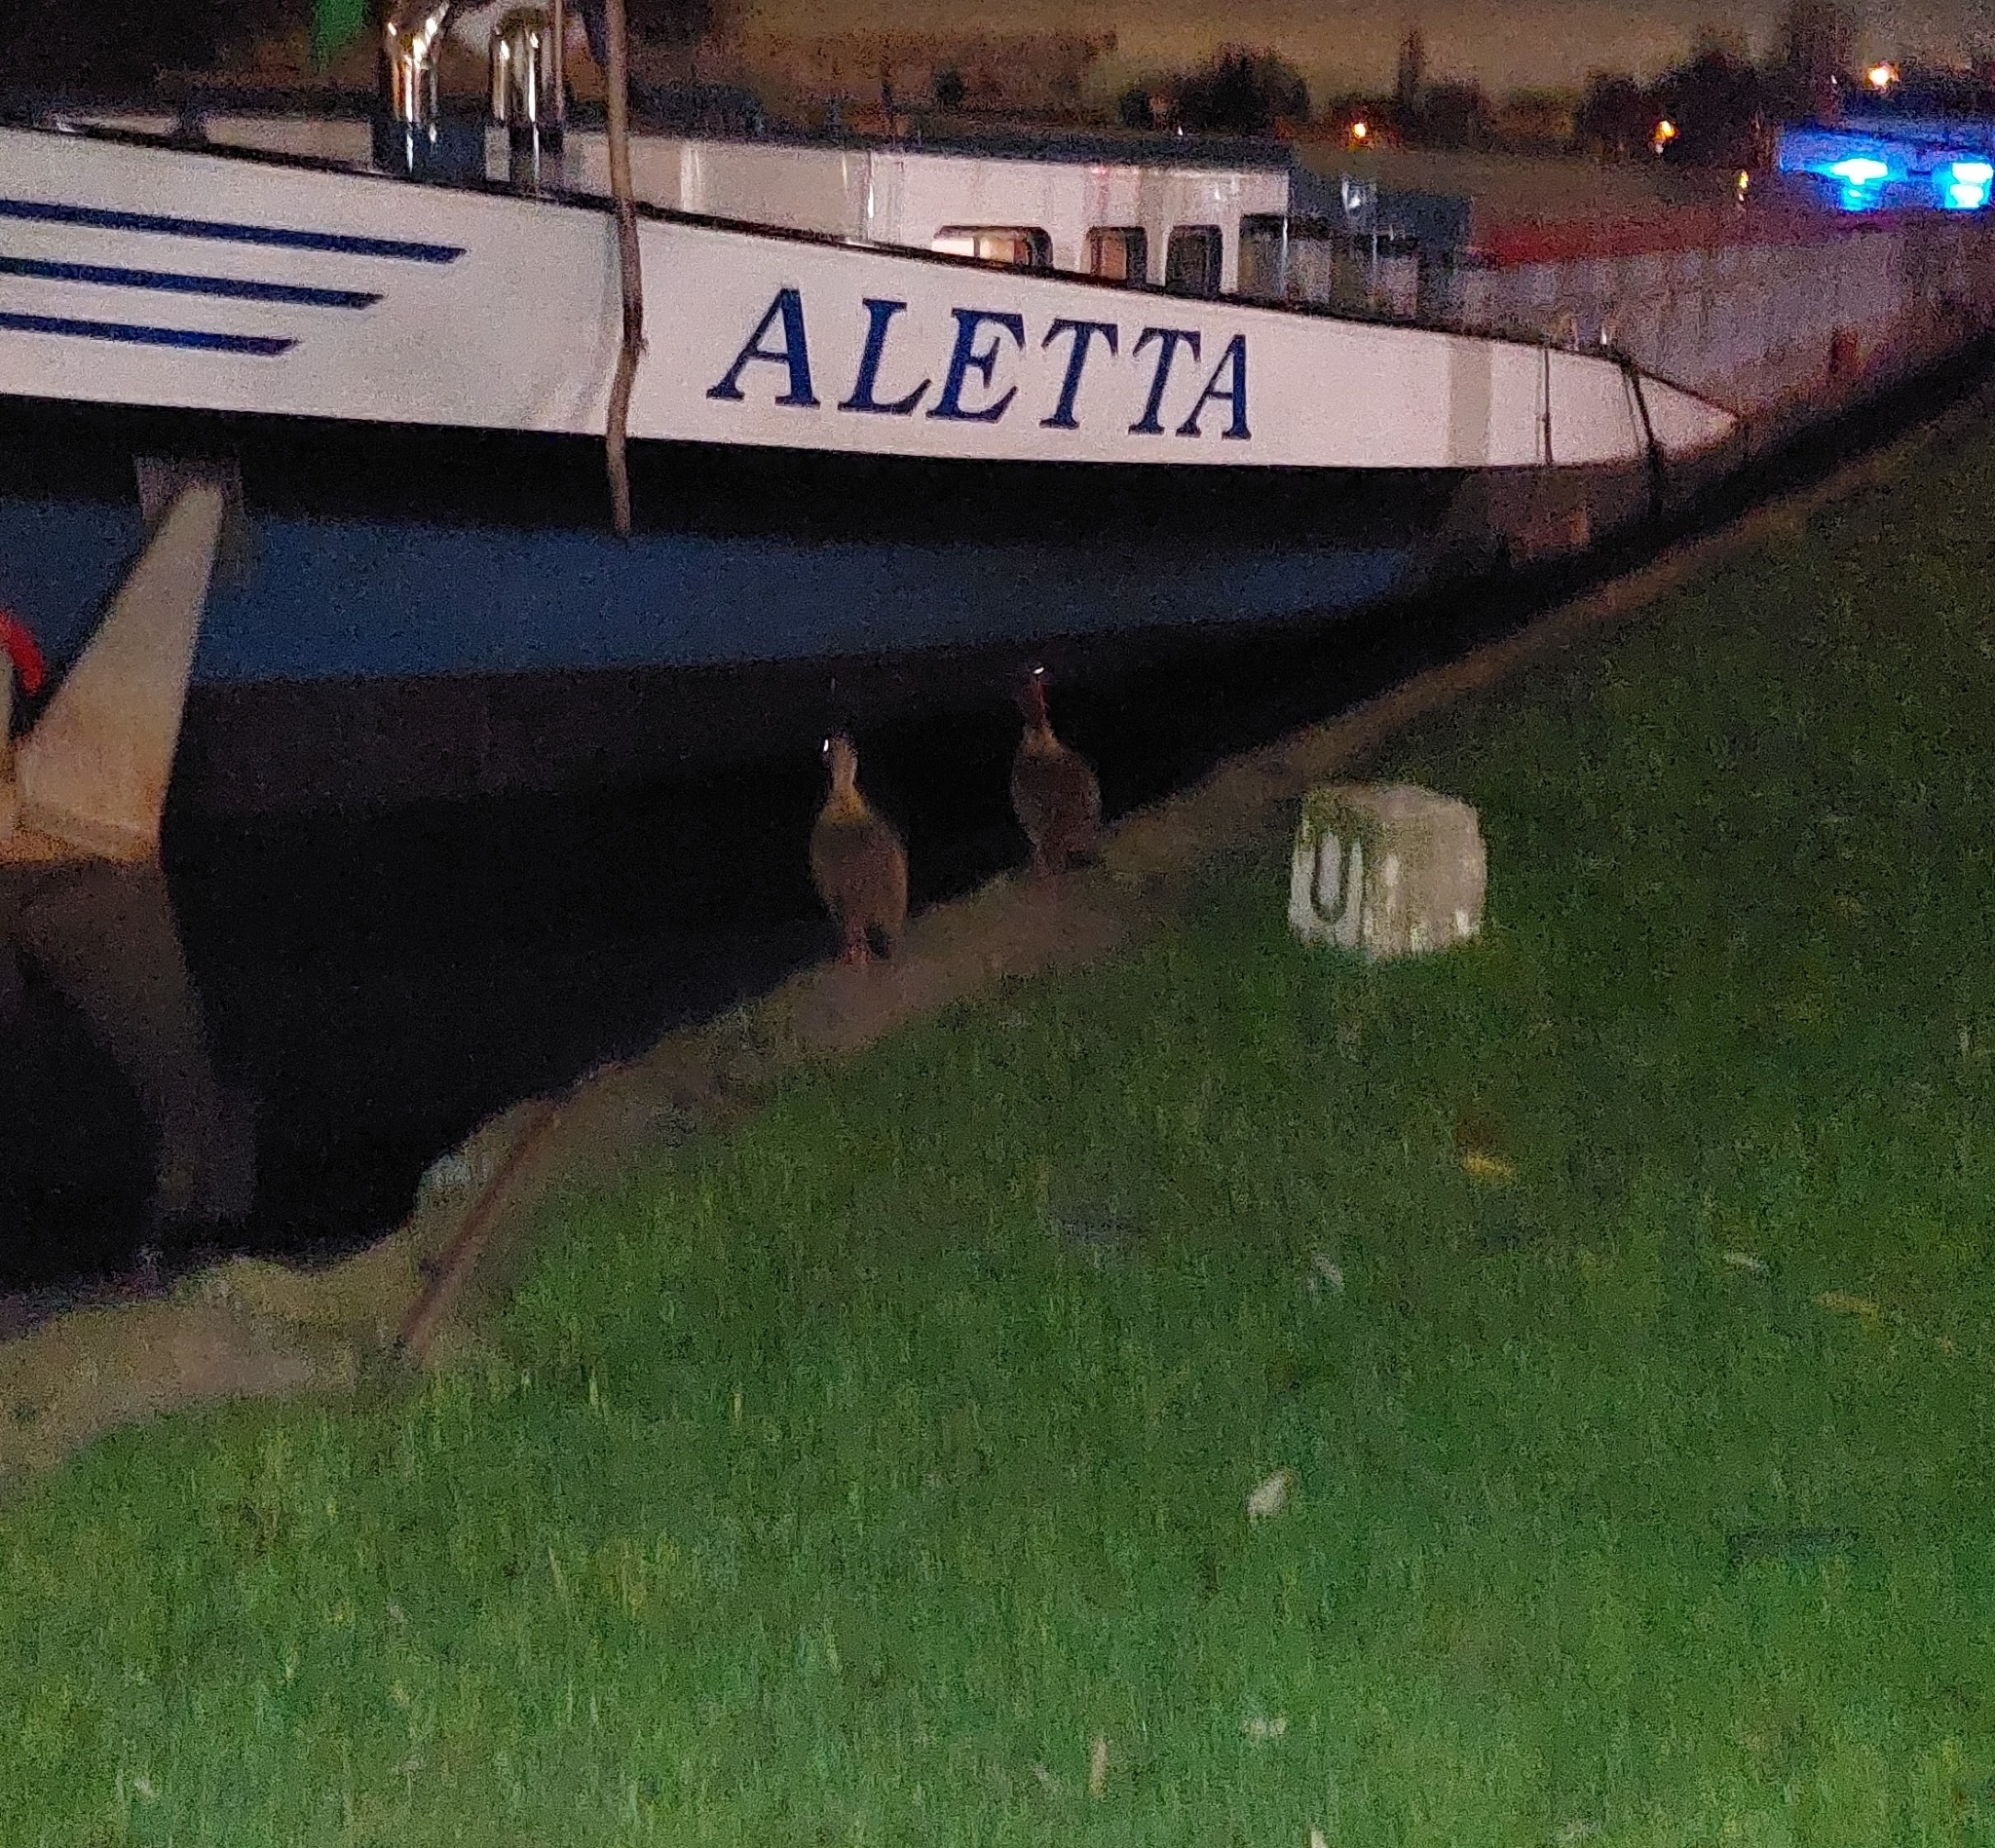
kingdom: Animalia
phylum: Chordata
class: Aves
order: Anseriformes
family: Anatidae
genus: Alopochen
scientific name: Alopochen aegyptiaca
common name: Egyptian goose
